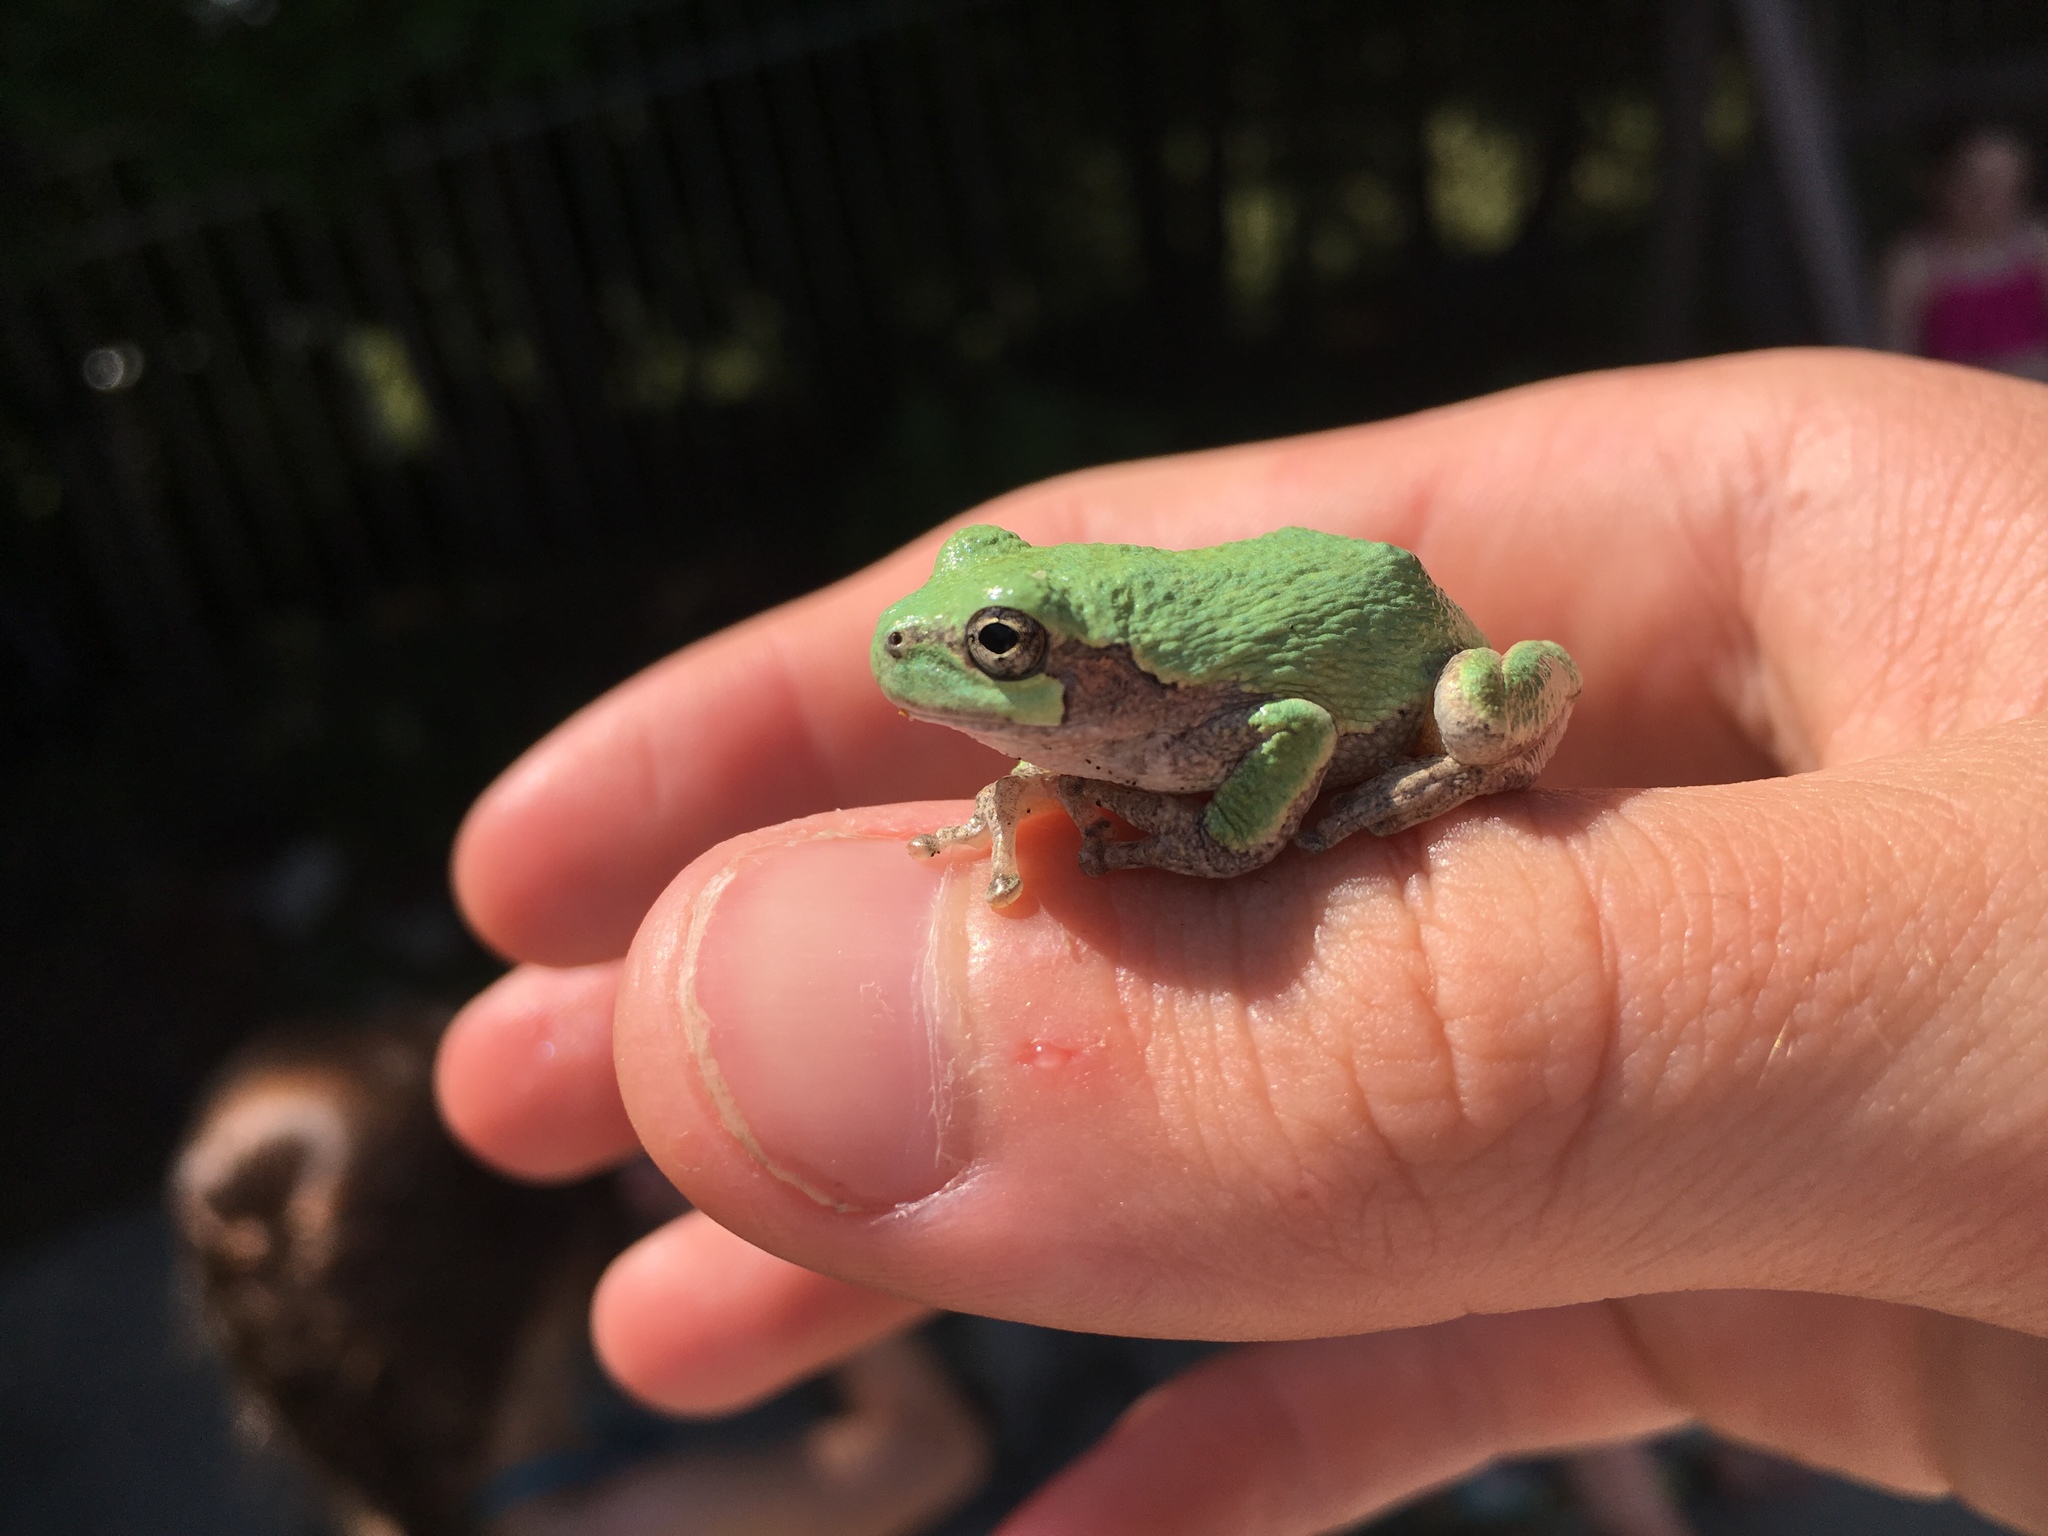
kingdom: Animalia
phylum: Chordata
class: Amphibia
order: Anura
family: Hylidae
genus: Hyla
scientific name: Hyla
